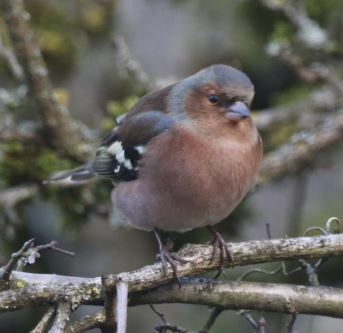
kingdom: Animalia
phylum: Chordata
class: Aves
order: Passeriformes
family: Fringillidae
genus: Fringilla
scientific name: Fringilla coelebs
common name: Common chaffinch
